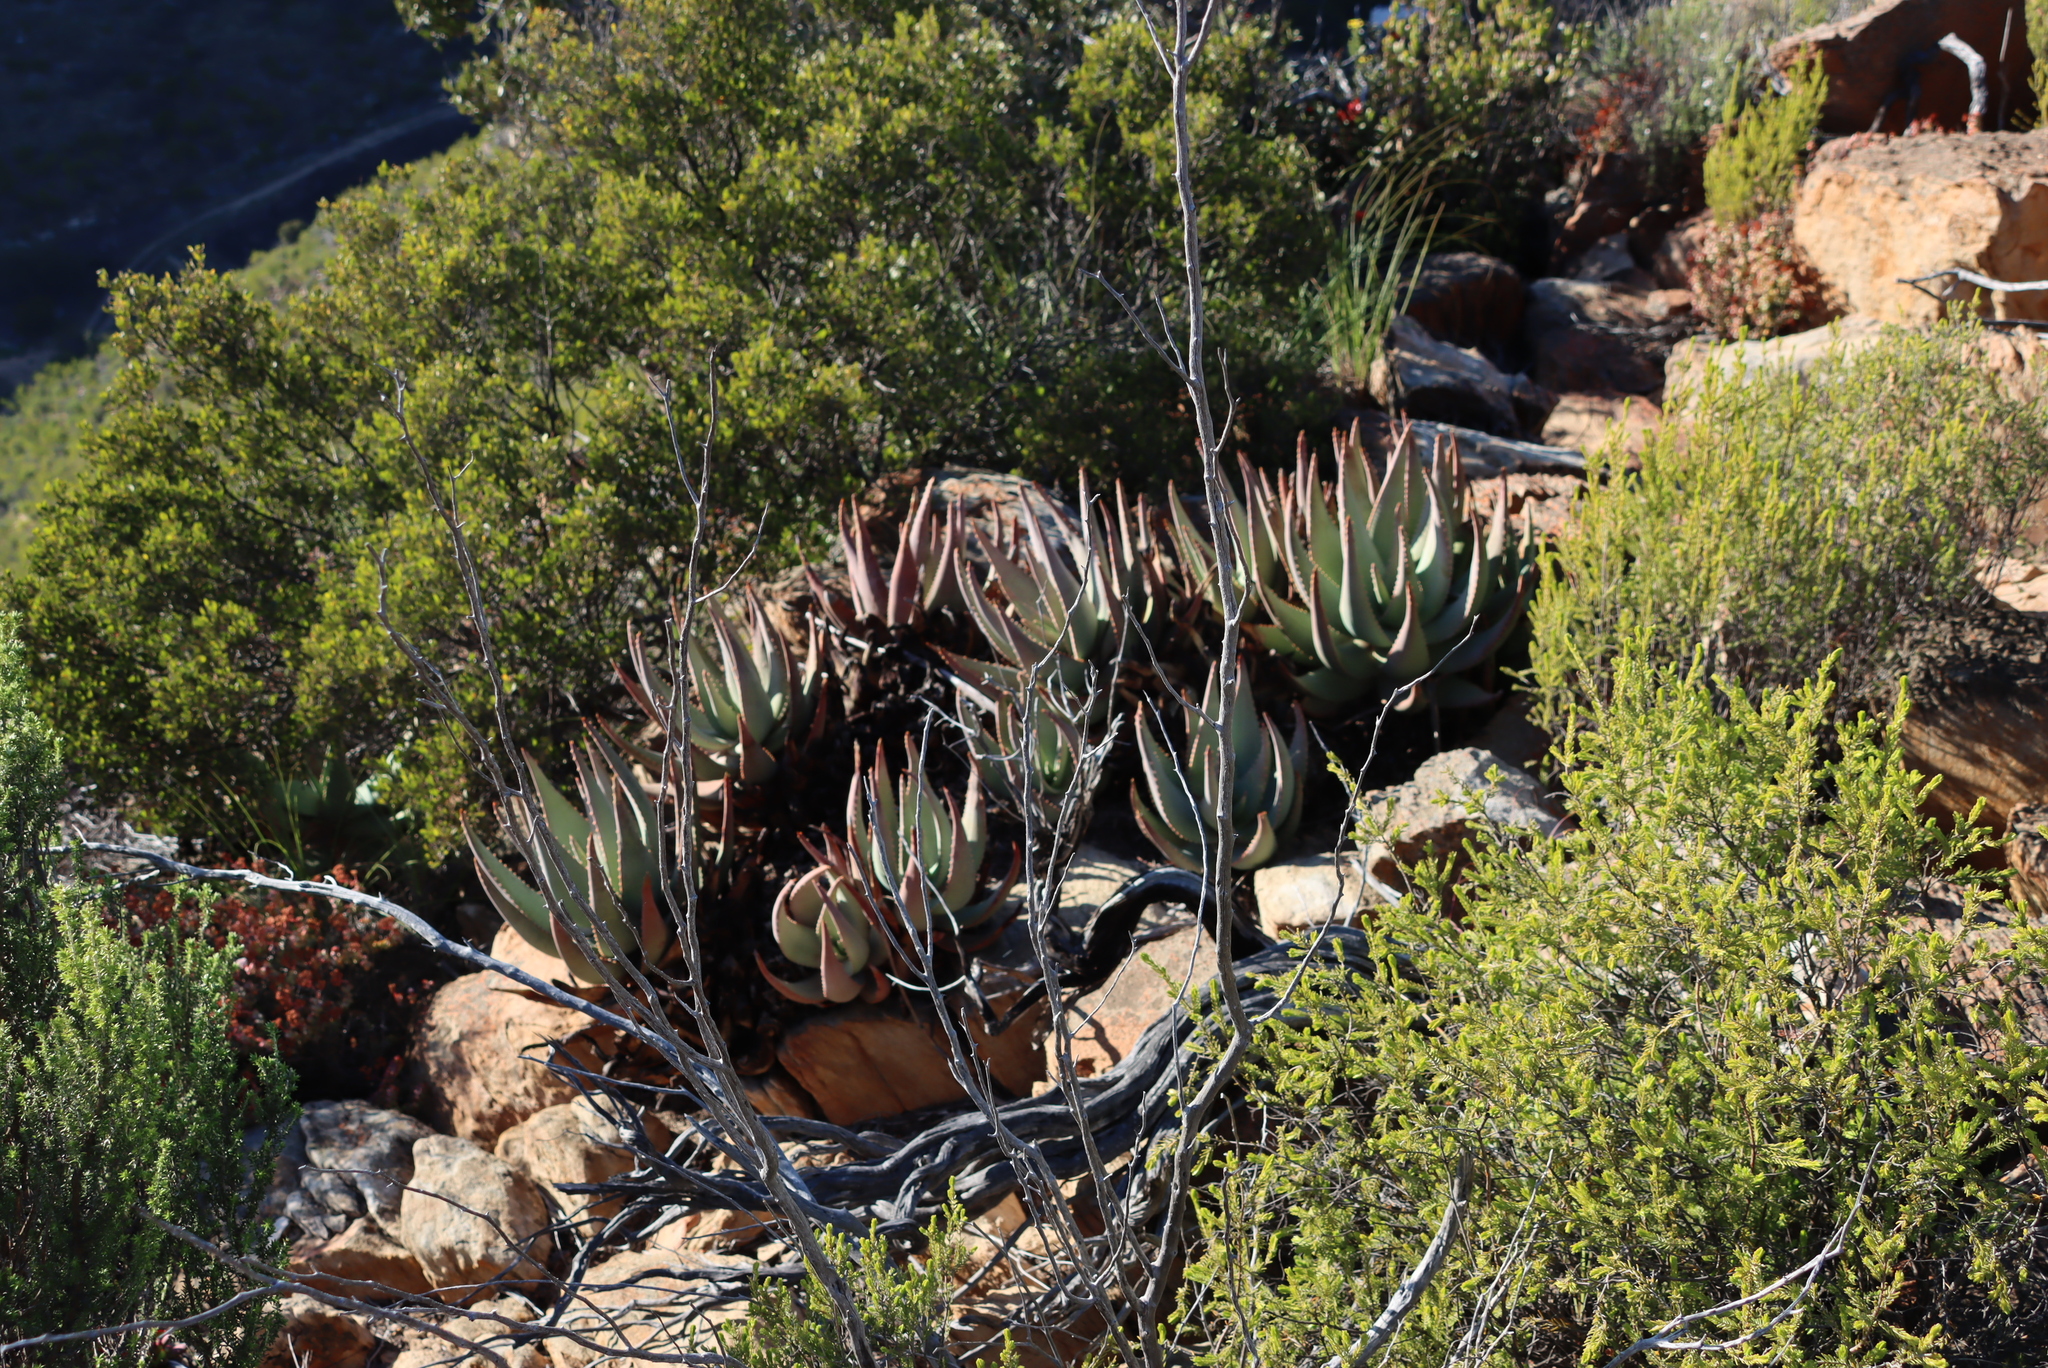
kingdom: Plantae
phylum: Tracheophyta
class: Liliopsida
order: Asparagales
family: Asphodelaceae
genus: Aloe
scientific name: Aloe comptonii
